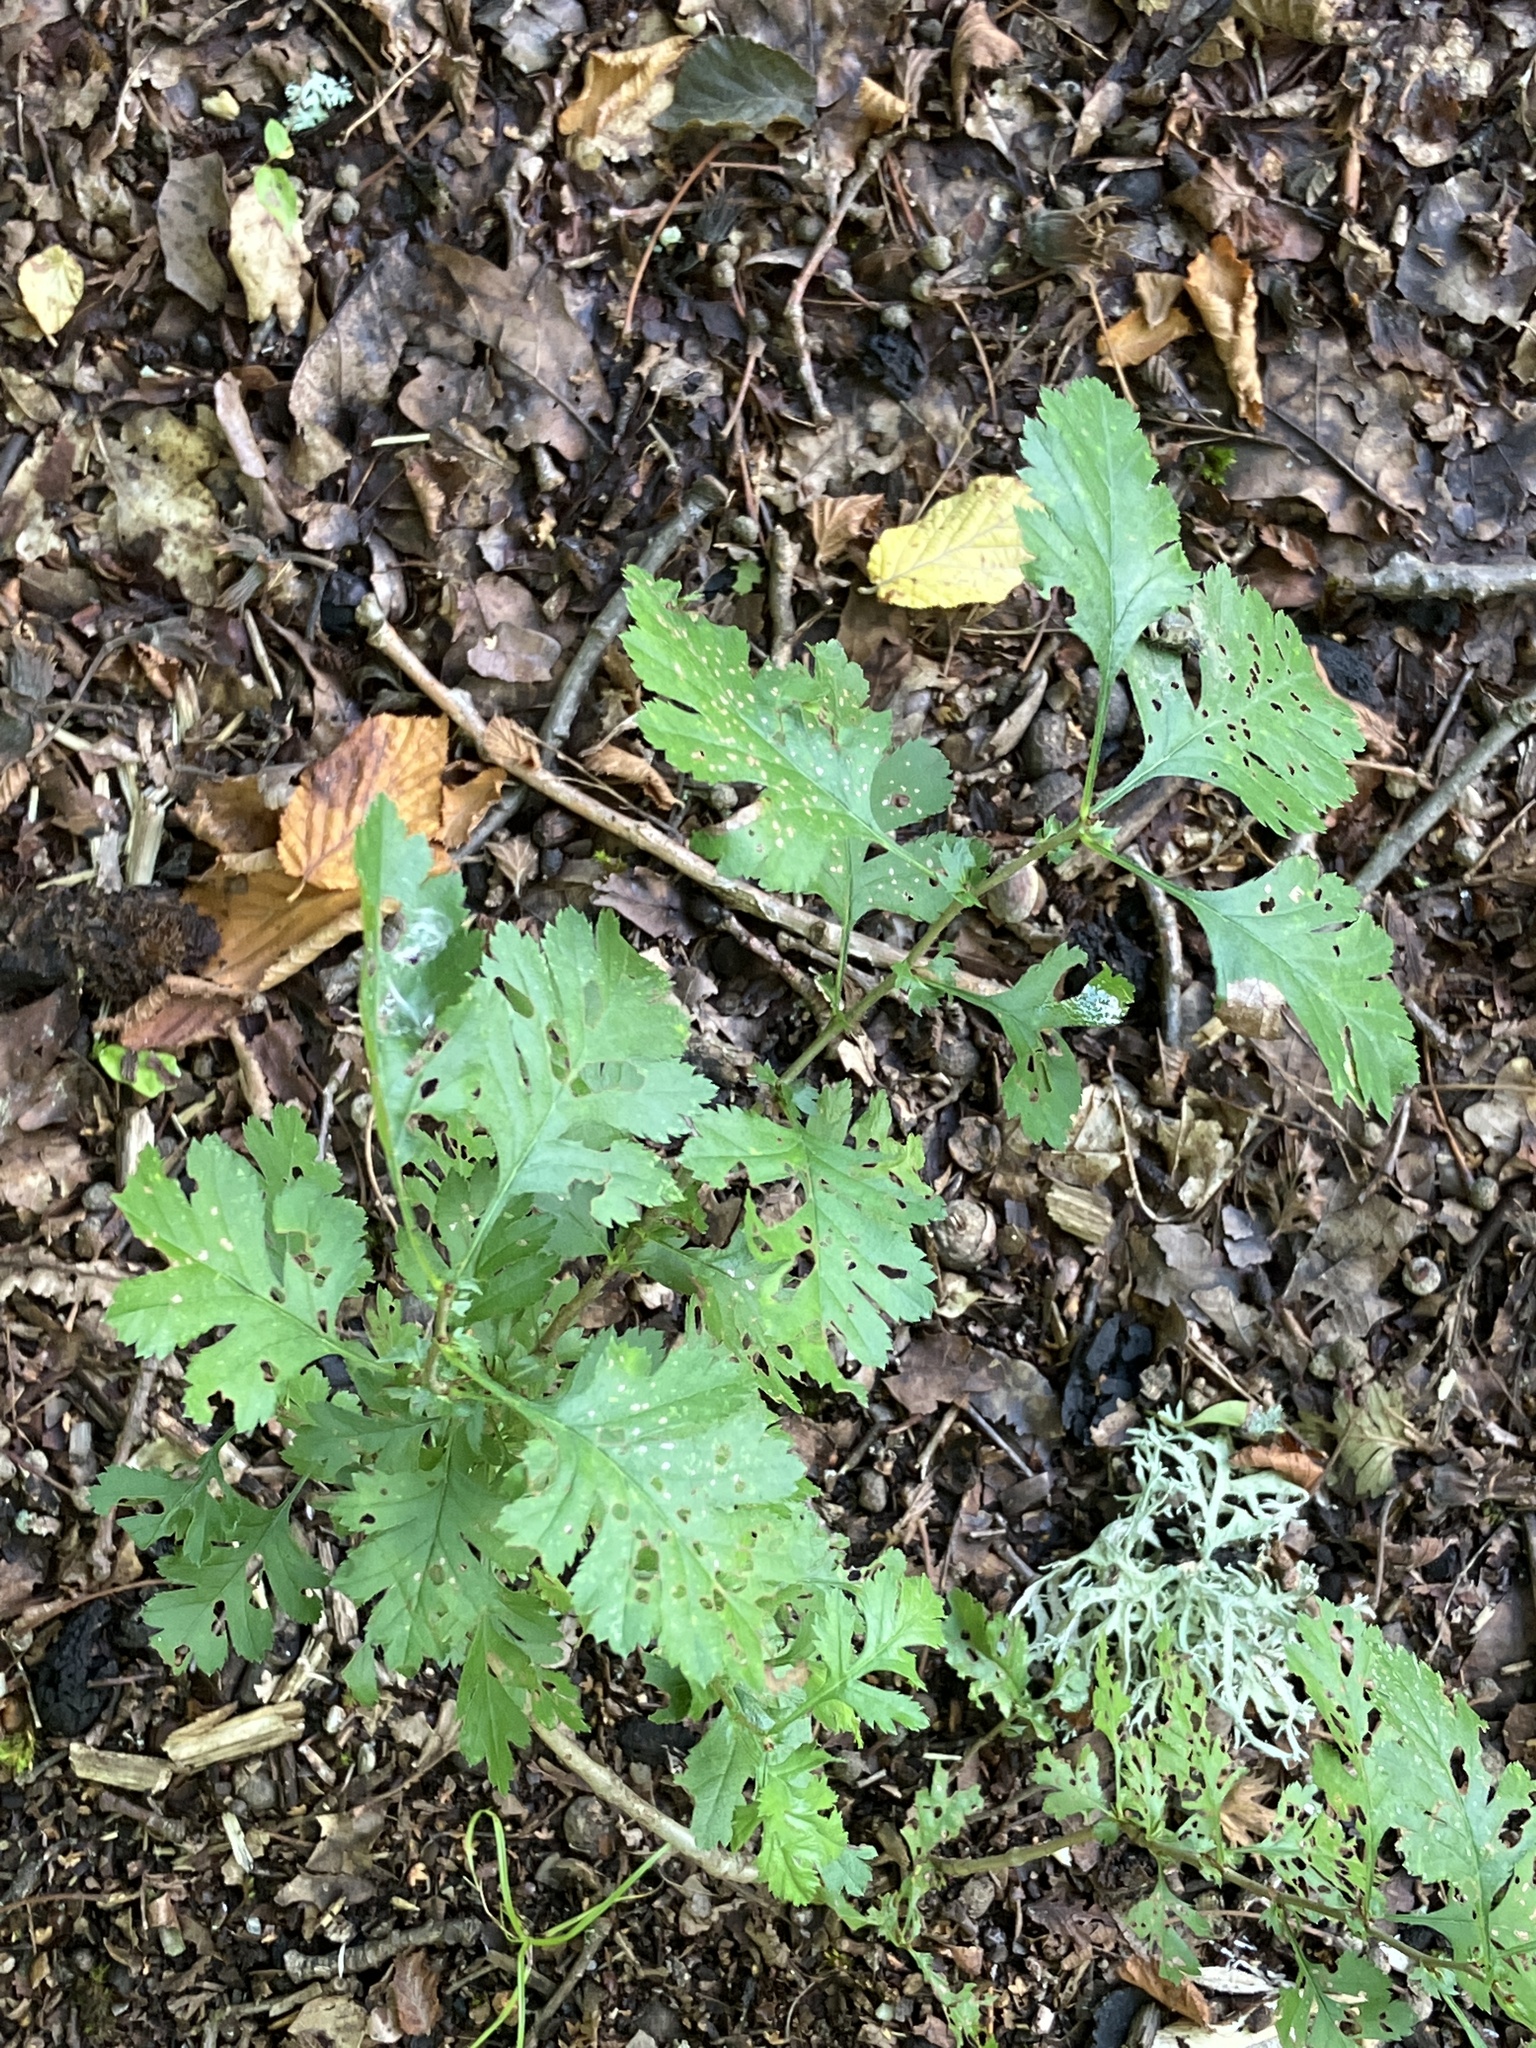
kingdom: Plantae
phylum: Tracheophyta
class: Magnoliopsida
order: Rosales
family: Rosaceae
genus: Crataegus
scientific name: Crataegus monogyna
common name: Hawthorn
